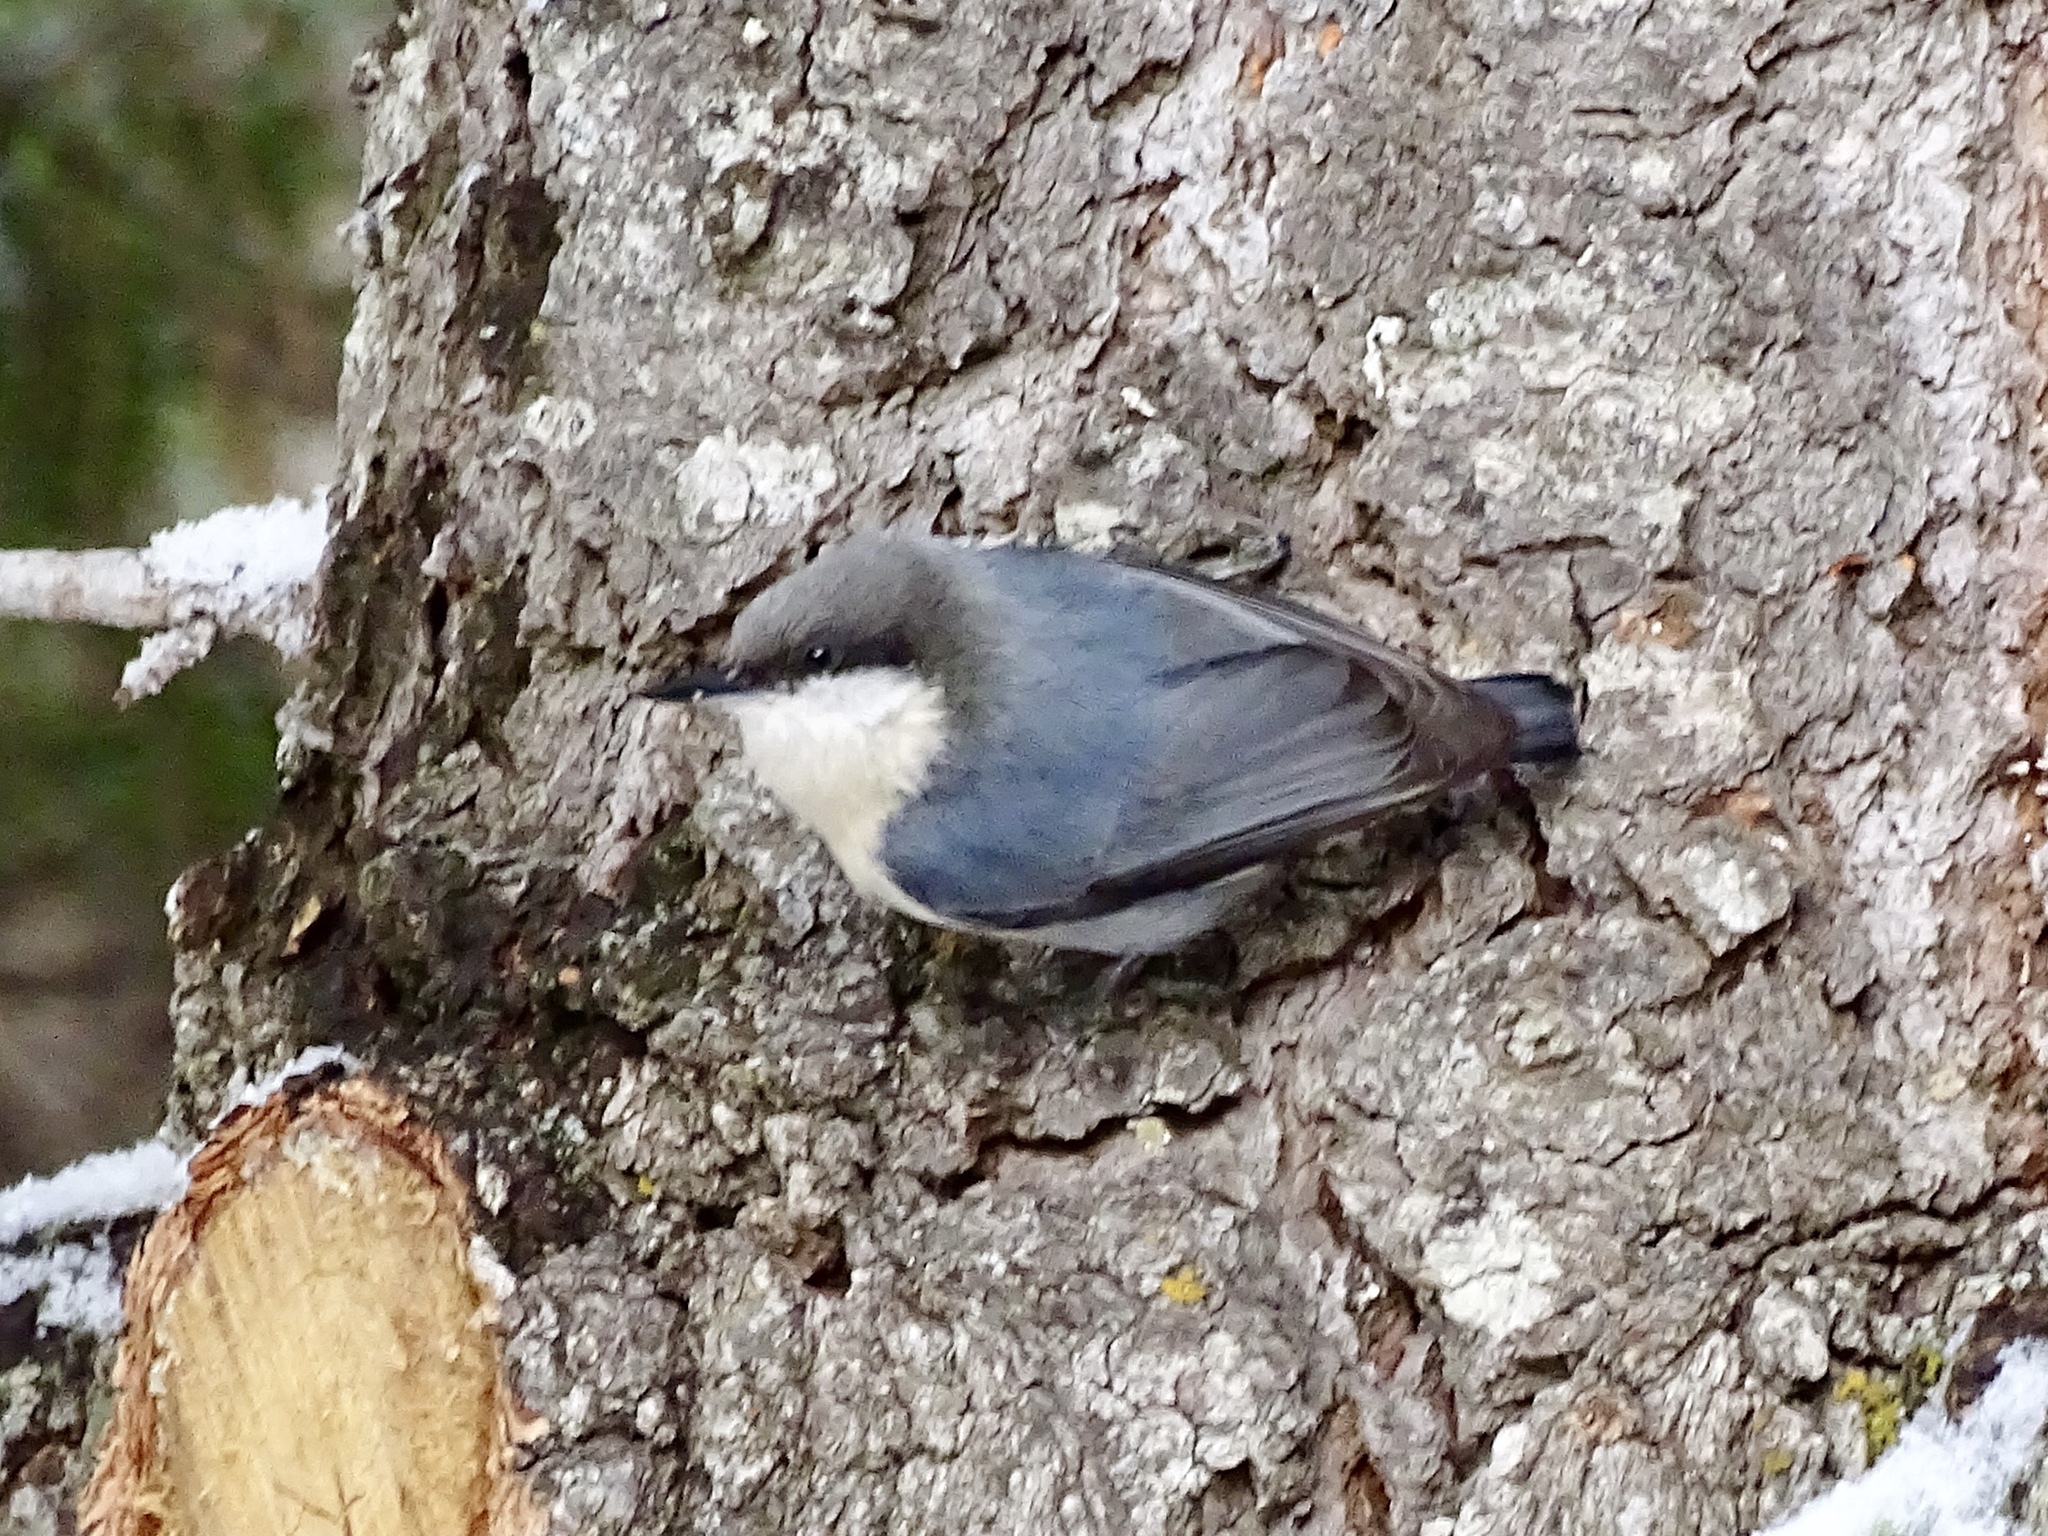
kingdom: Animalia
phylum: Chordata
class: Aves
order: Passeriformes
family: Sittidae
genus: Sitta
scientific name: Sitta pygmaea
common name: Pygmy nuthatch
